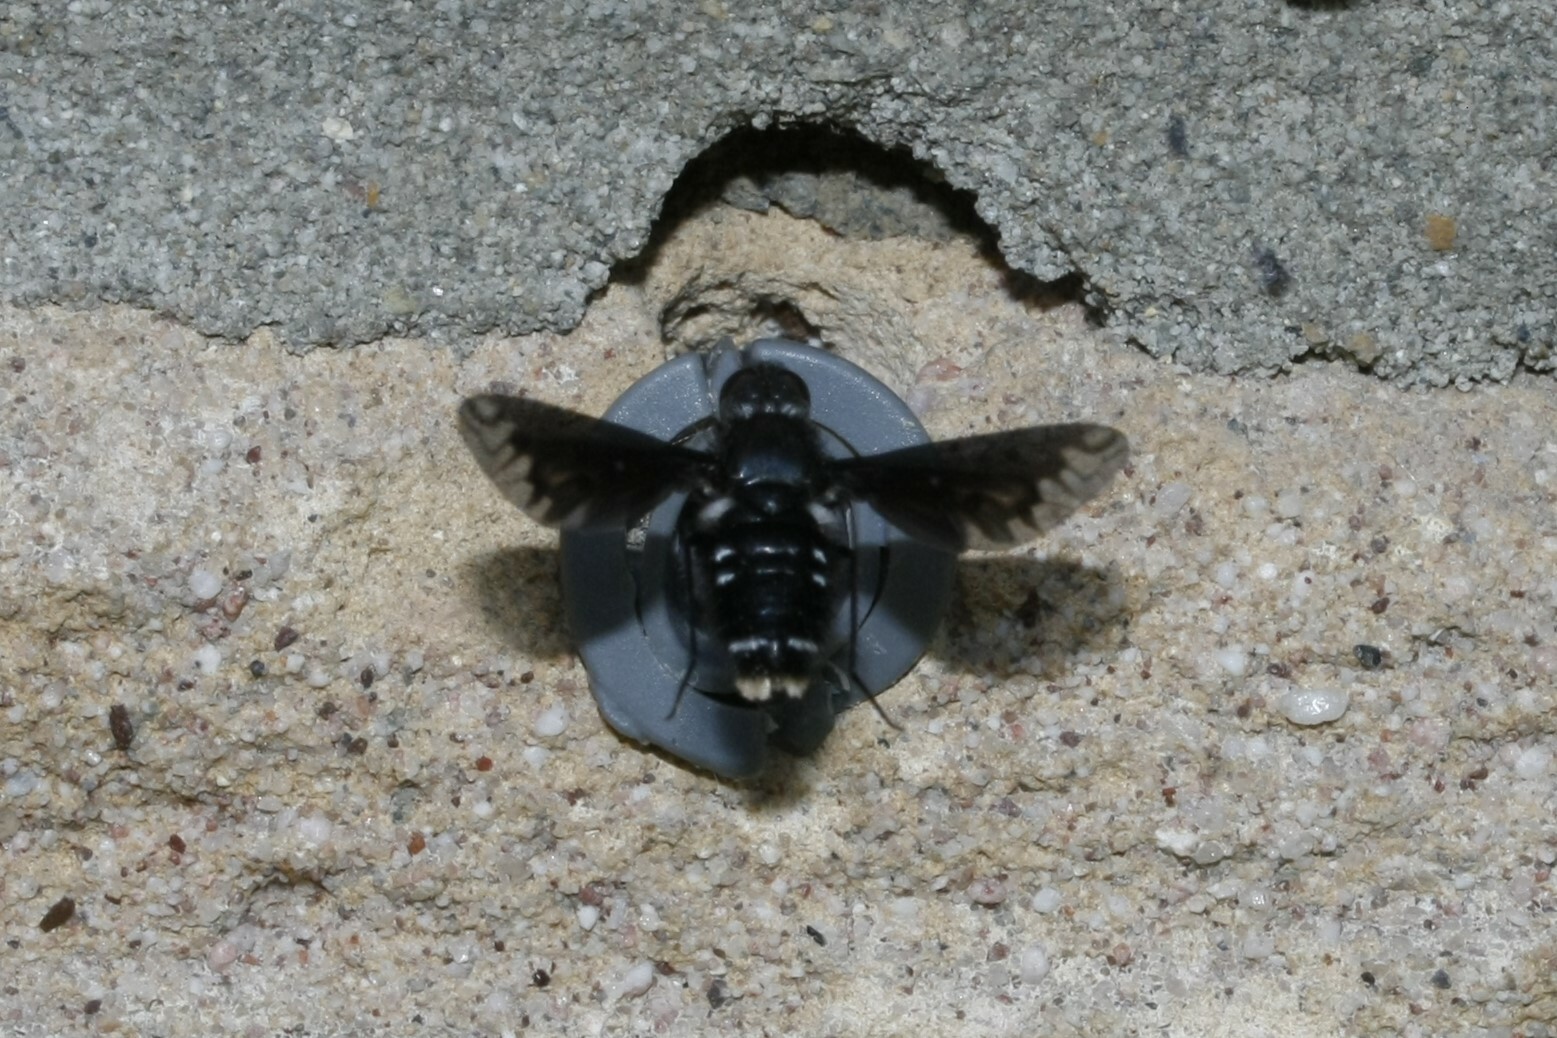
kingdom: Animalia
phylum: Arthropoda
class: Insecta
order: Diptera
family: Bombyliidae
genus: Anthrax
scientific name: Anthrax anthrax
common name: Anthracite bee-fly
